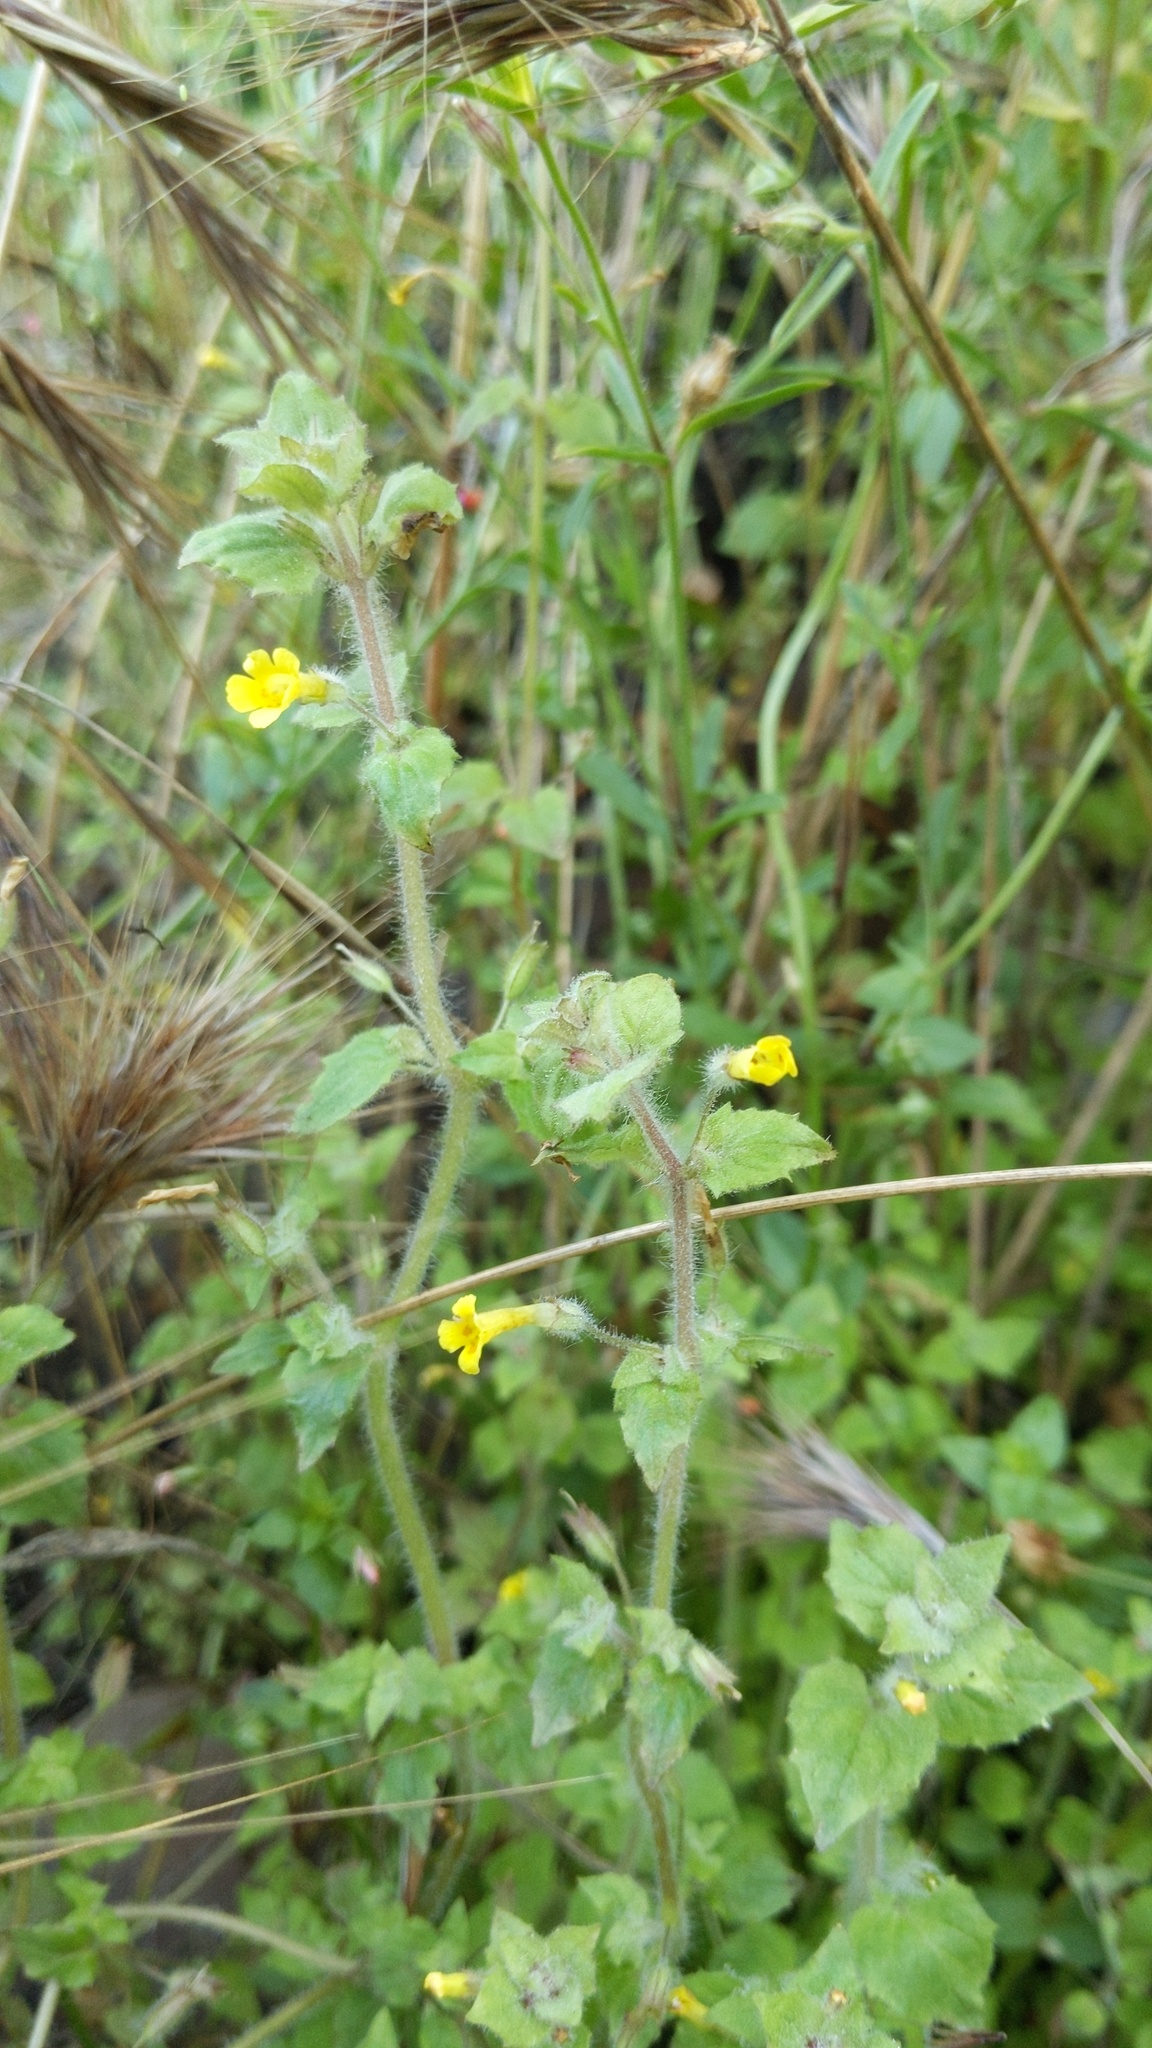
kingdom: Plantae
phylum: Tracheophyta
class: Magnoliopsida
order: Lamiales
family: Phrymaceae
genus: Erythranthe
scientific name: Erythranthe floribunda
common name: Floriferous monkeyflower
